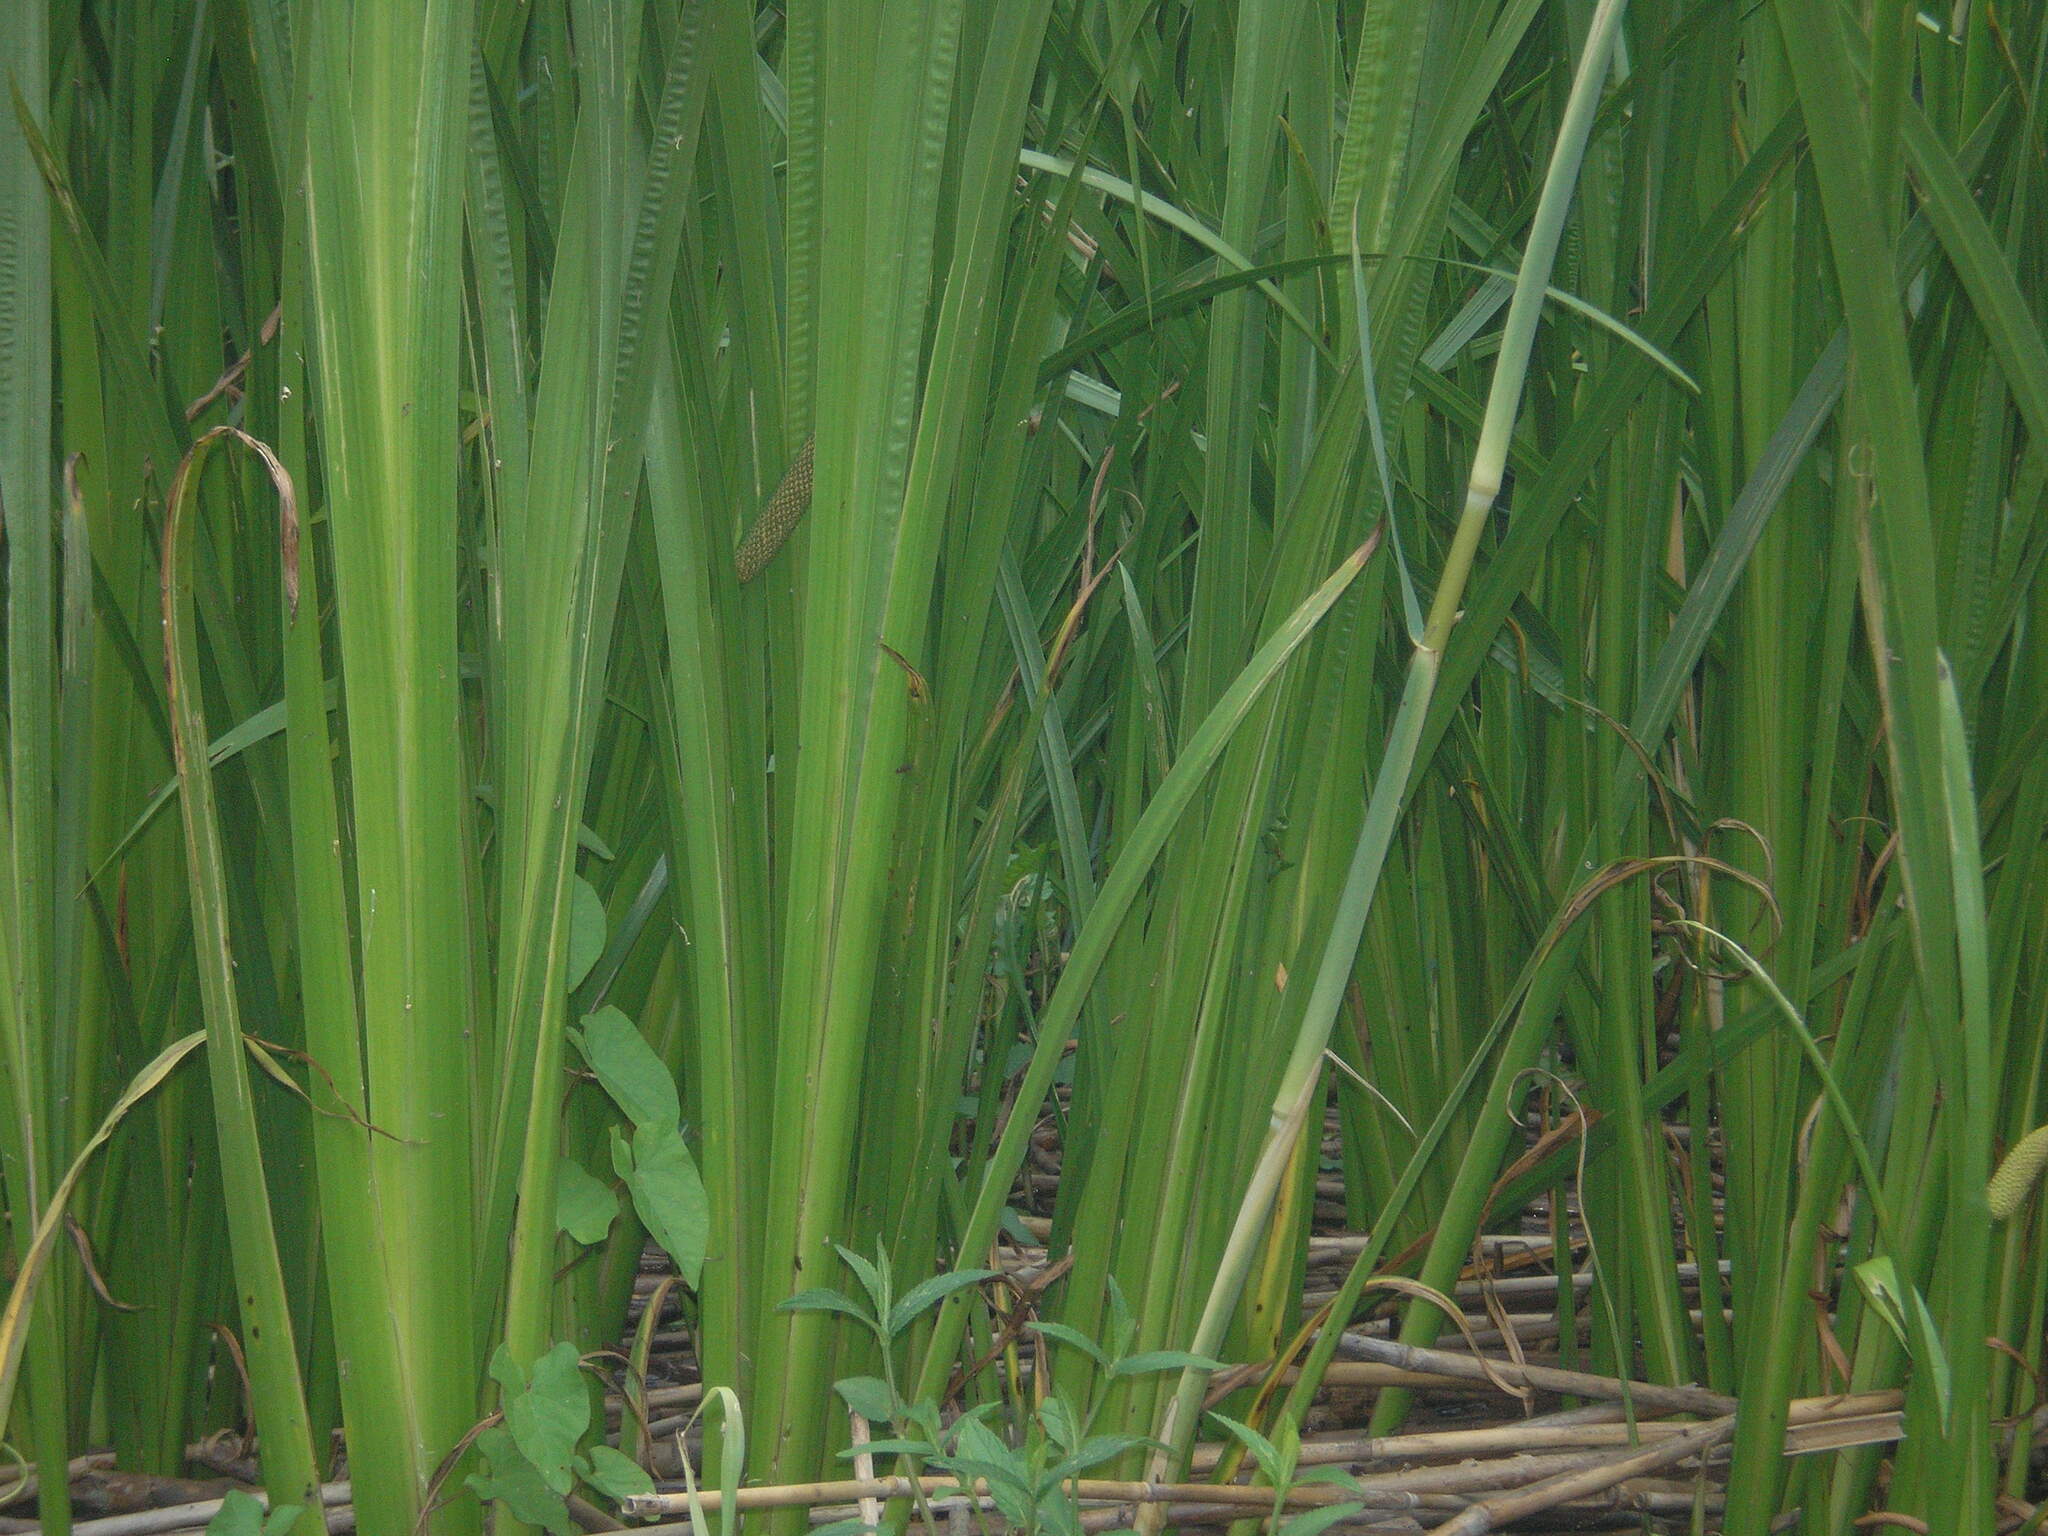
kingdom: Plantae
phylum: Tracheophyta
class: Liliopsida
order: Acorales
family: Acoraceae
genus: Acorus
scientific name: Acorus calamus
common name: Sweet-flag
